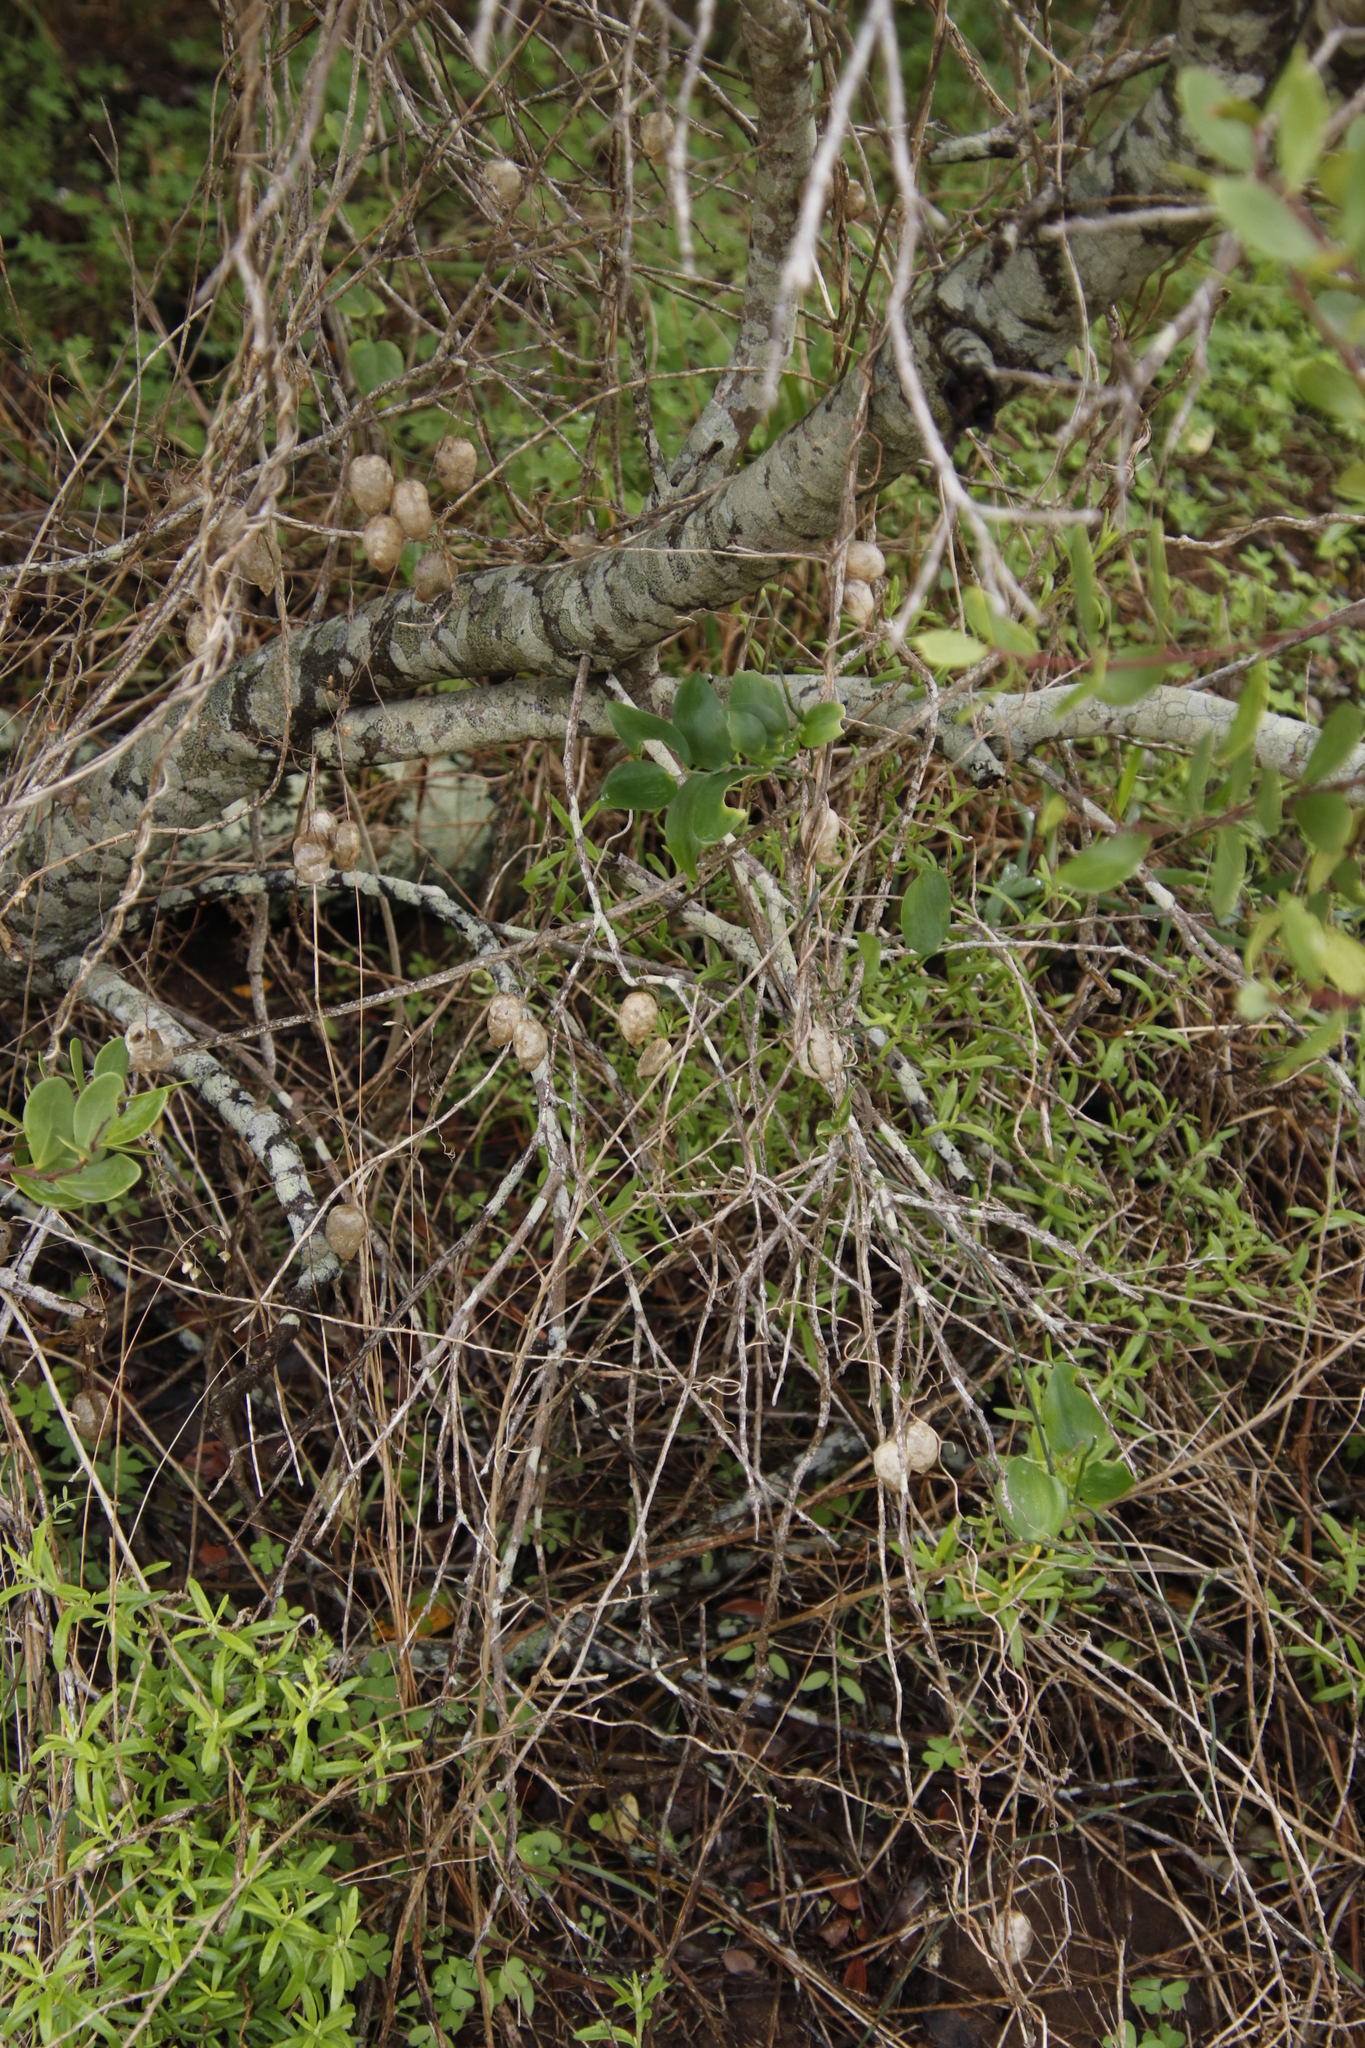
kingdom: Plantae
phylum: Tracheophyta
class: Magnoliopsida
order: Ranunculales
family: Papaveraceae
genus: Cysticapnos
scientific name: Cysticapnos vesicaria
